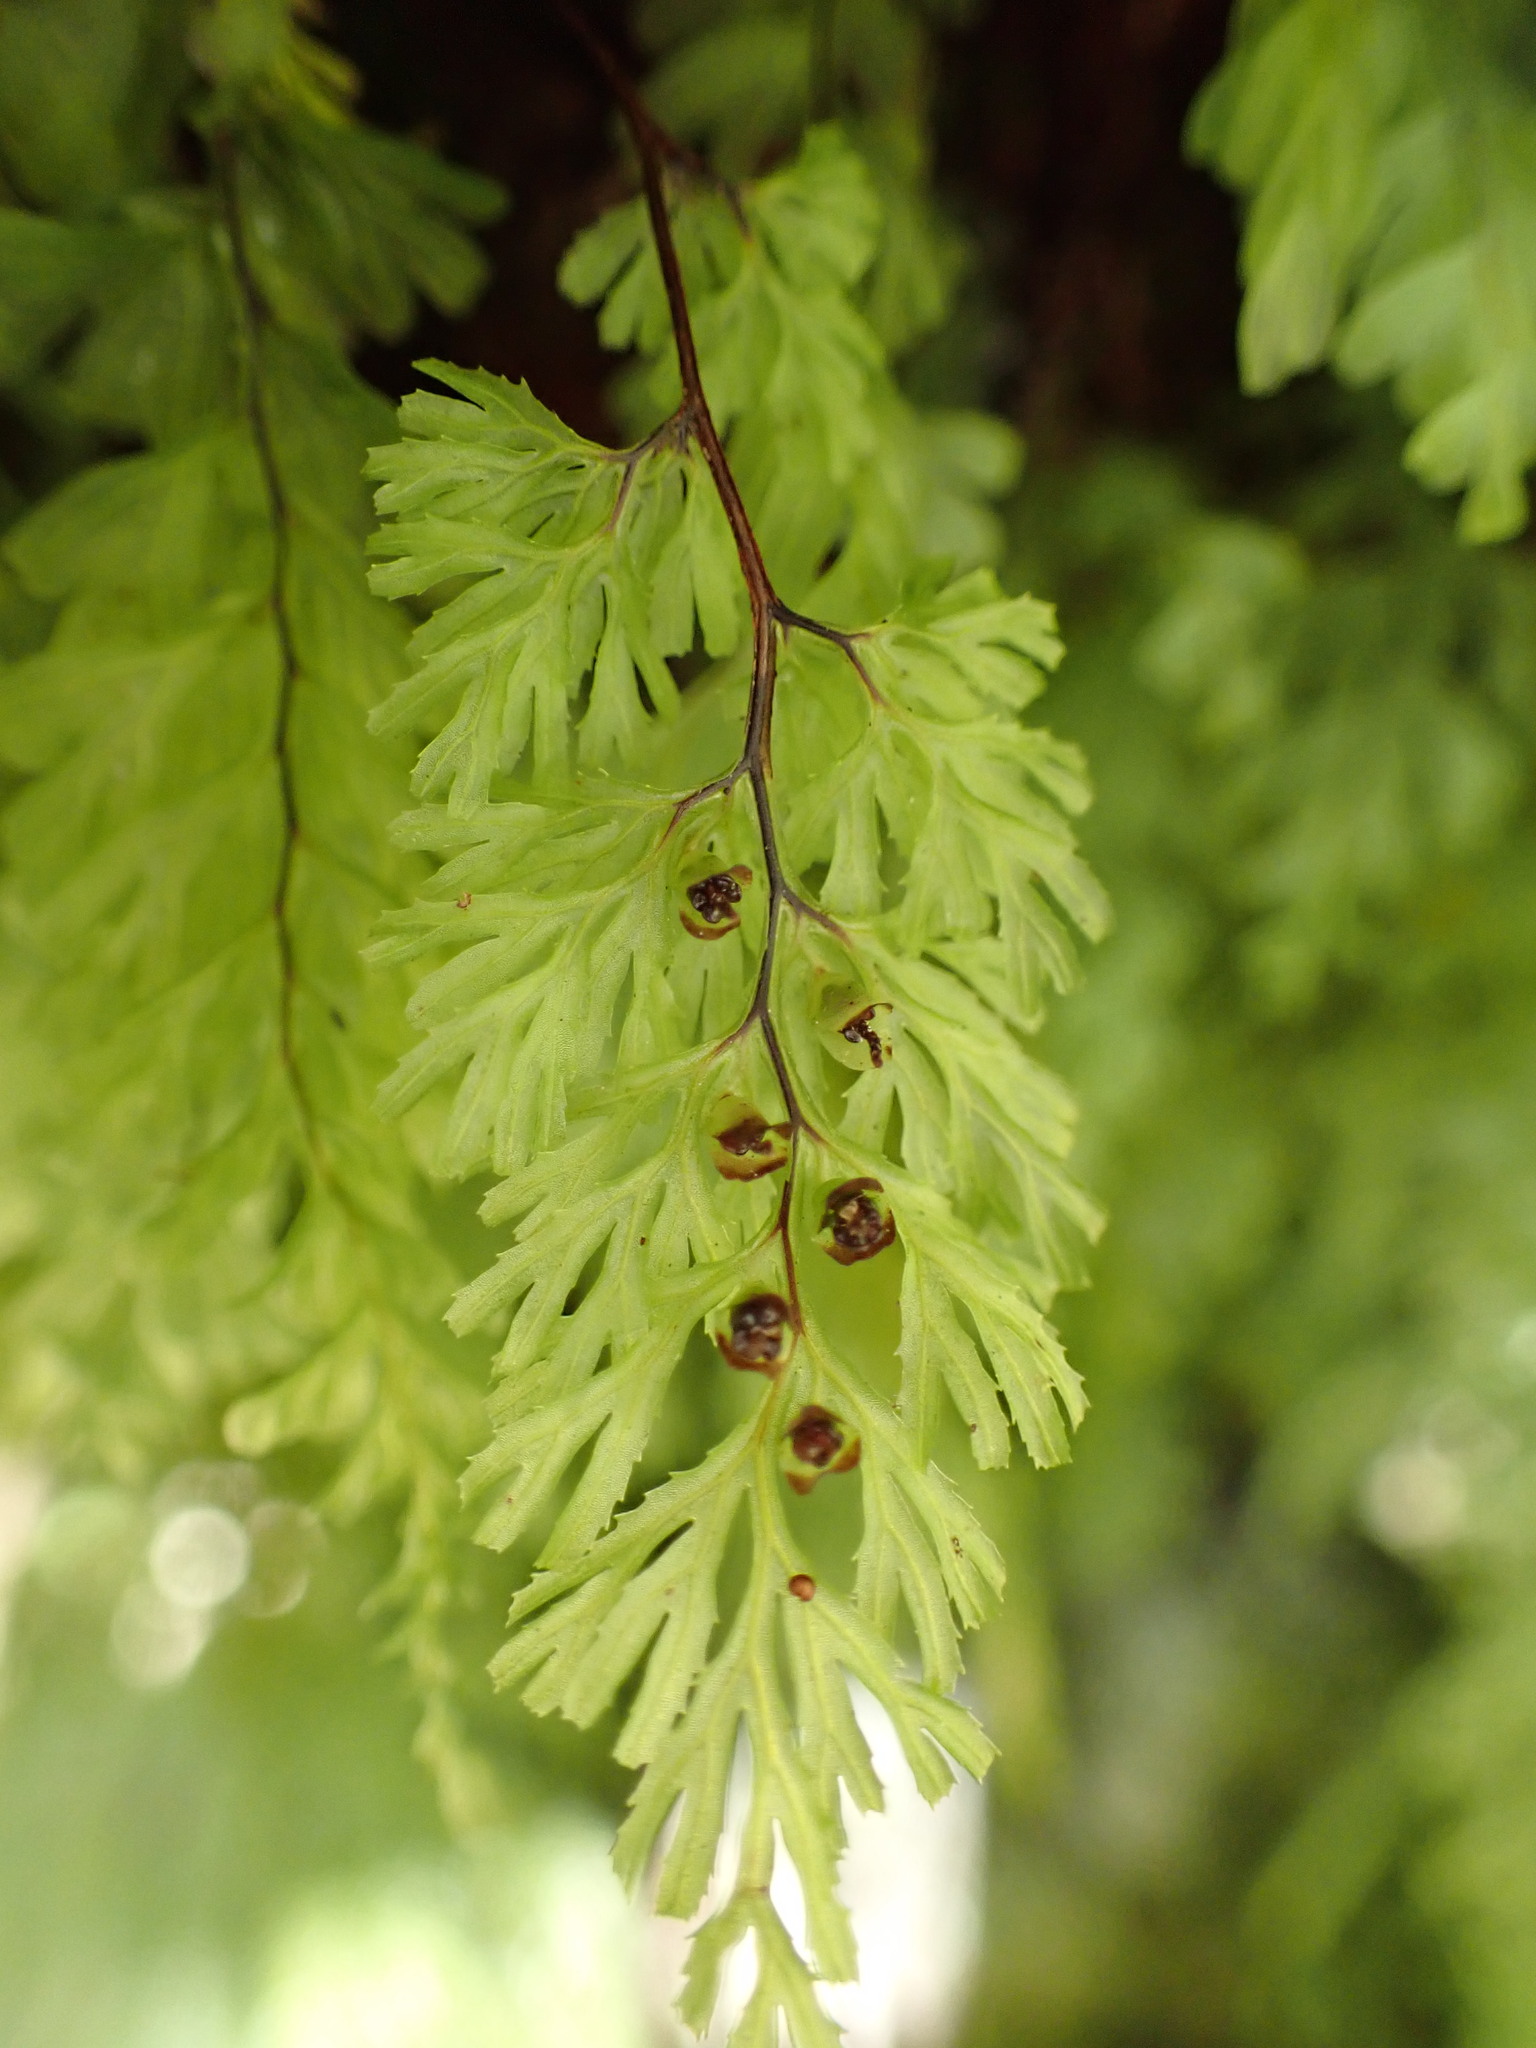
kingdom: Plantae
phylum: Tracheophyta
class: Polypodiopsida
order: Hymenophyllales
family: Hymenophyllaceae
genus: Hymenophyllum
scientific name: Hymenophyllum multifidum
